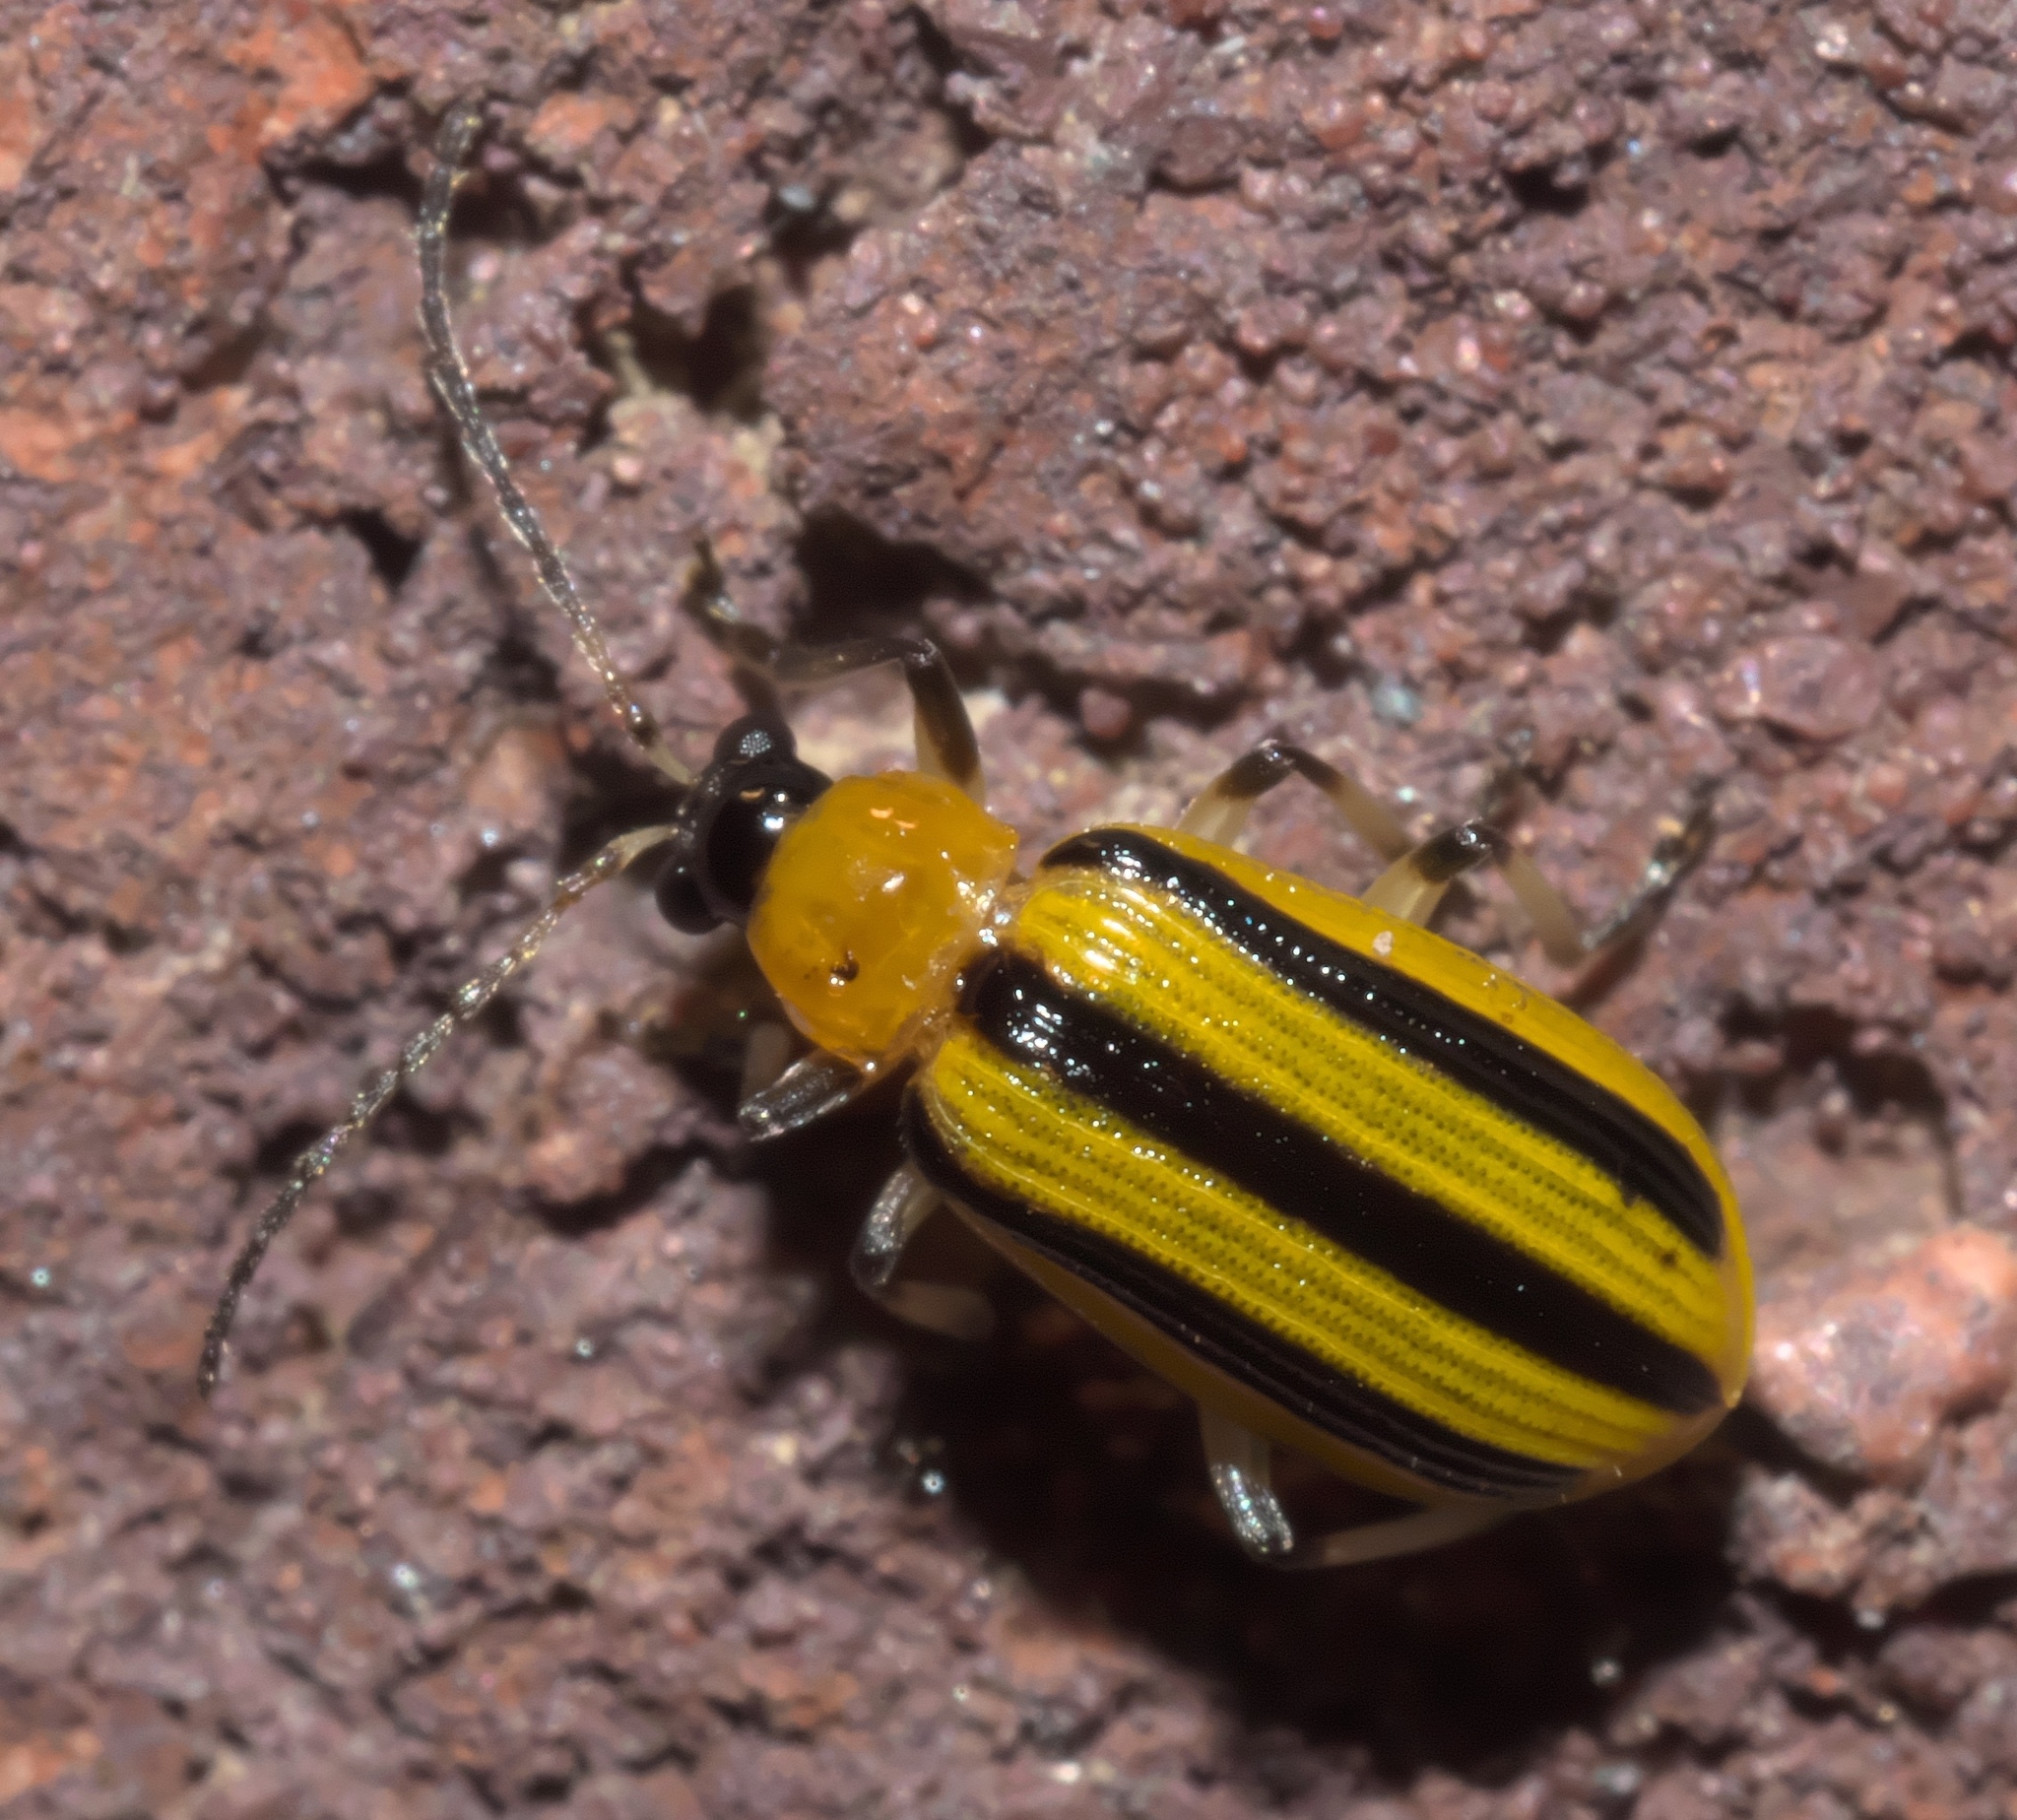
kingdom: Animalia
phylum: Arthropoda
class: Insecta
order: Coleoptera
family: Chrysomelidae
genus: Acalymma
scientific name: Acalymma vittatum
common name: Striped cucumber beetle
